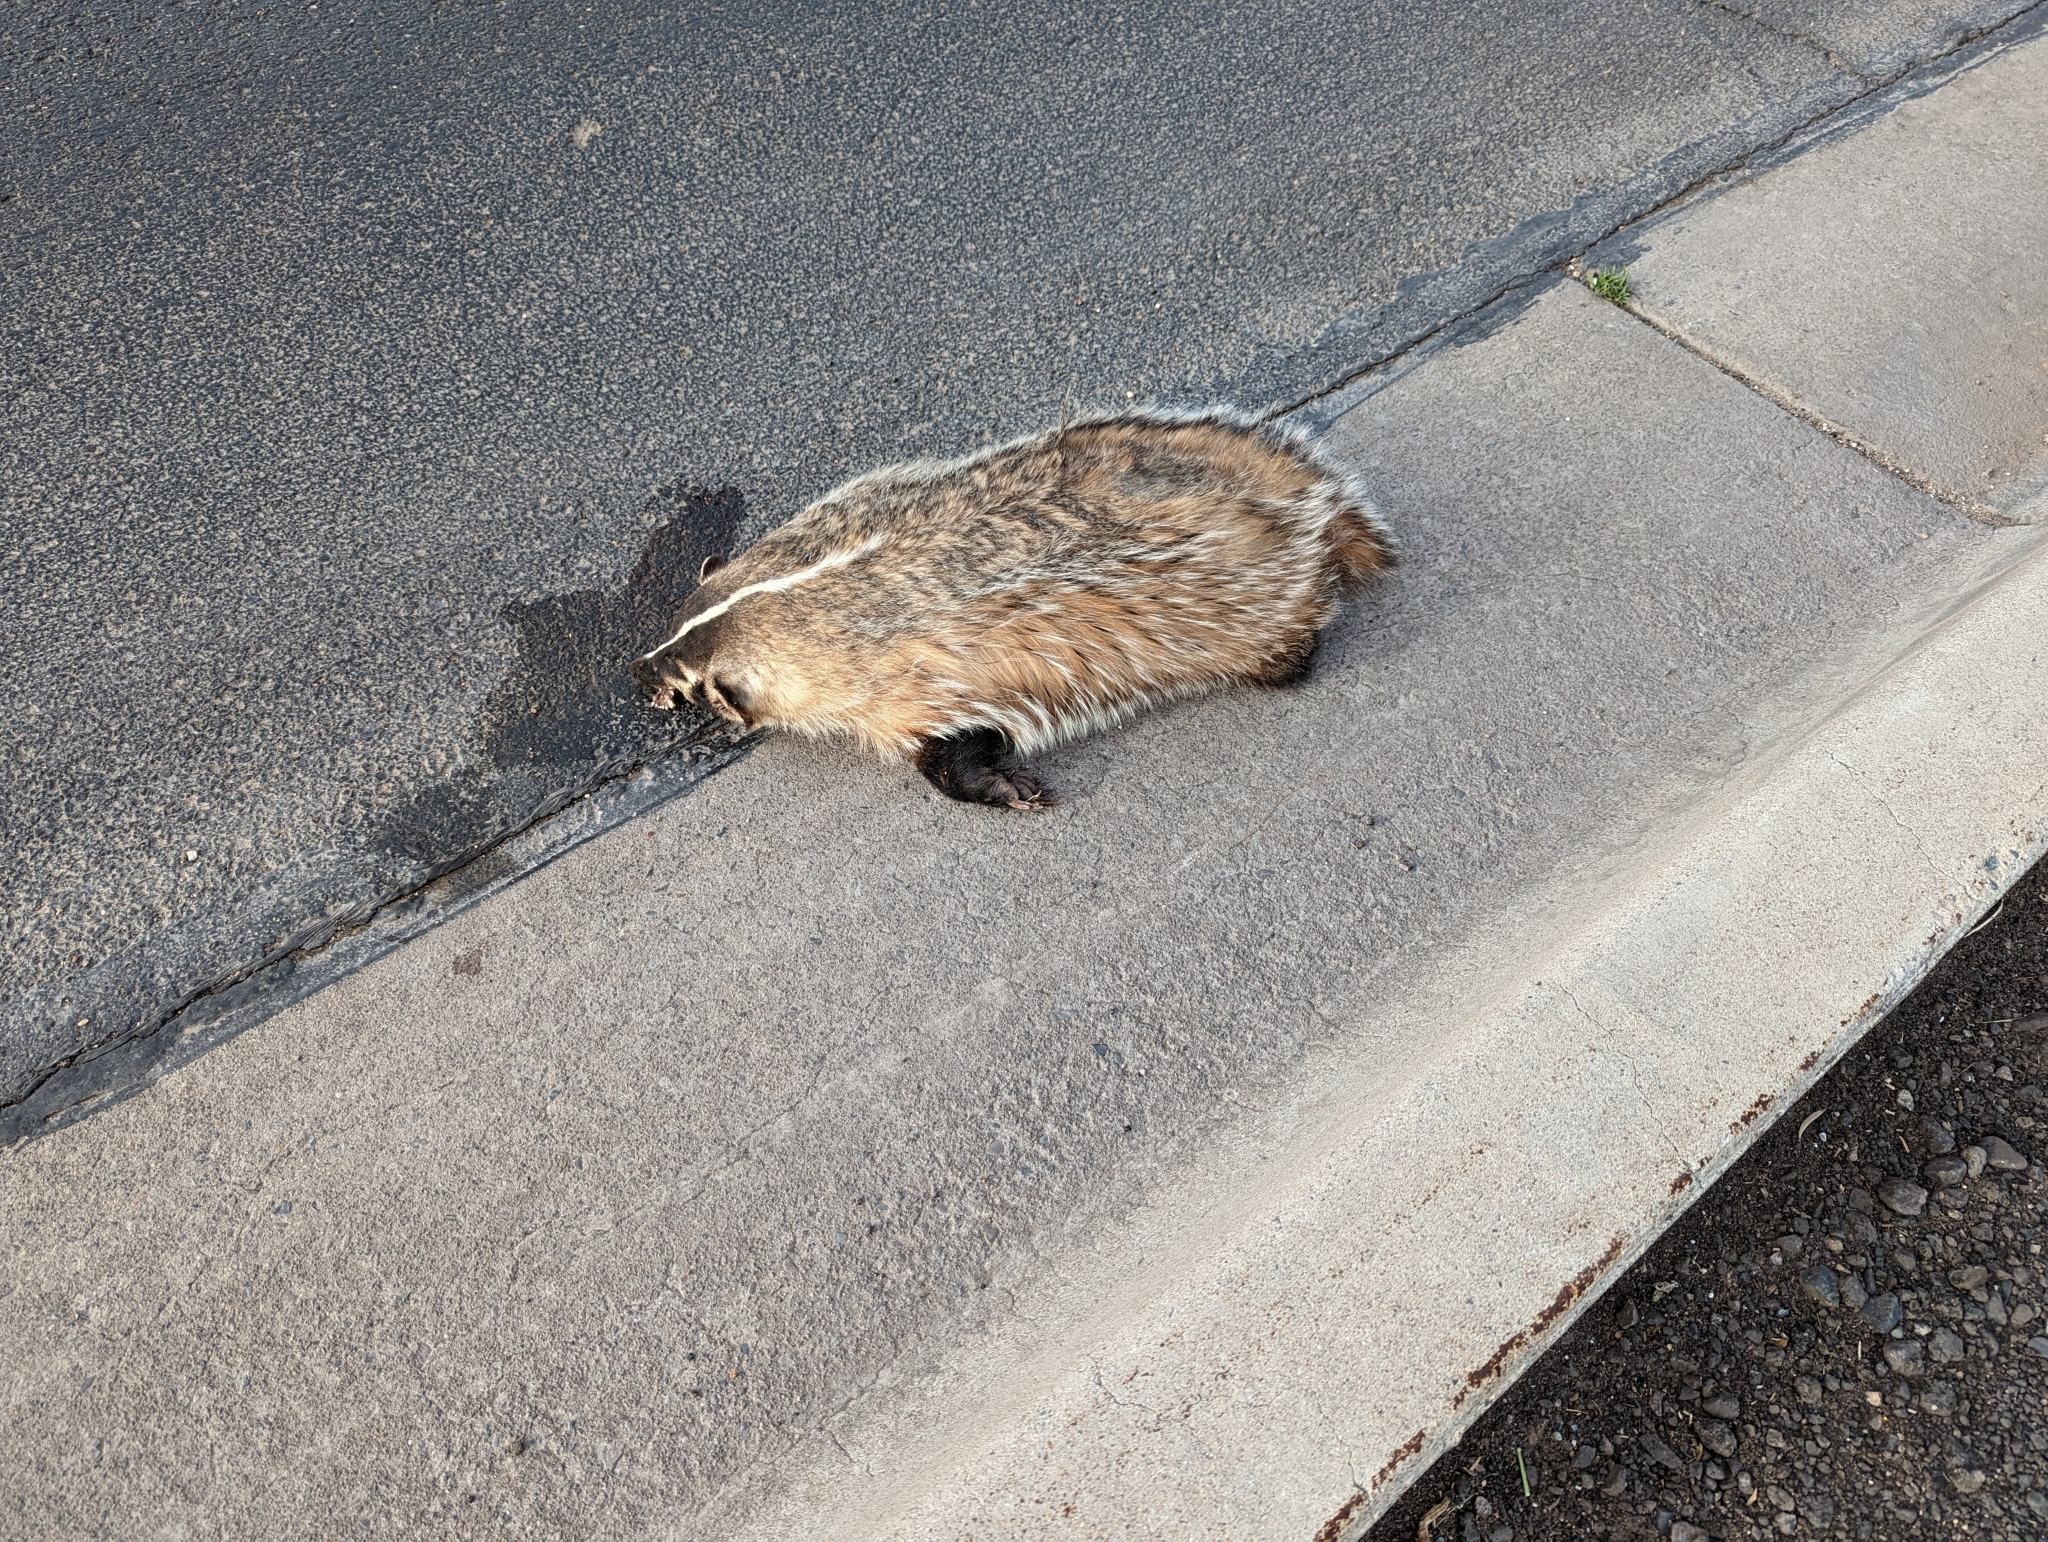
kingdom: Animalia
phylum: Chordata
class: Mammalia
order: Carnivora
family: Mustelidae
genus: Taxidea
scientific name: Taxidea taxus
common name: American badger
